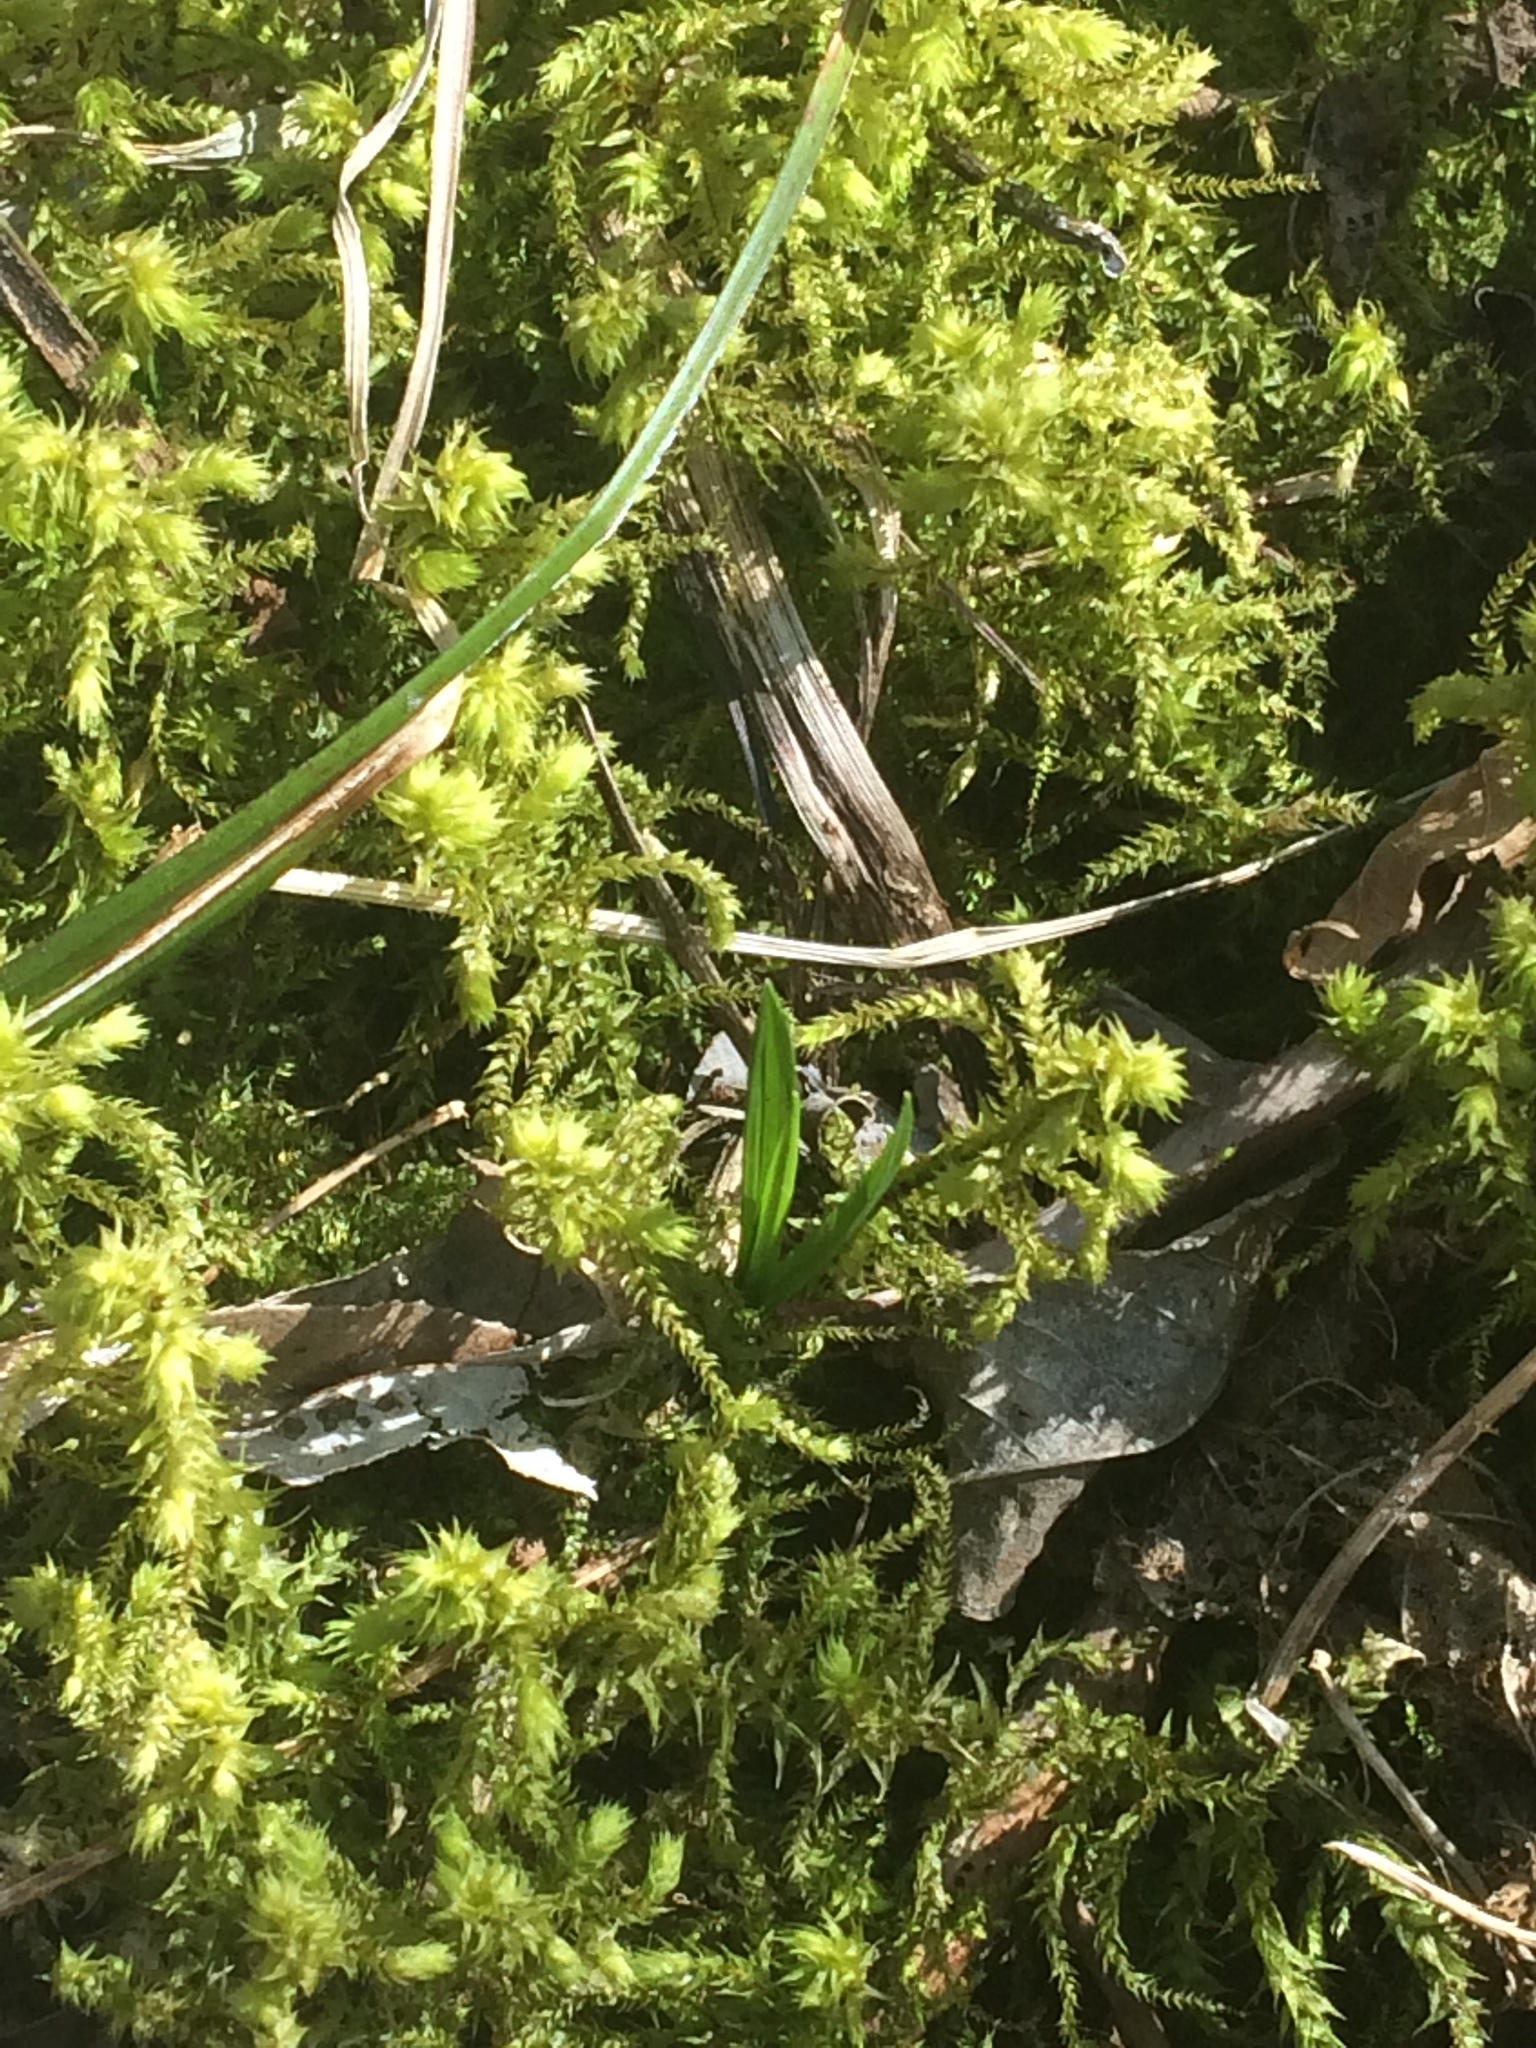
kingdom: Plantae
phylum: Bryophyta
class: Bryopsida
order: Hypnales
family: Hylocomiaceae
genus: Hylocomiadelphus
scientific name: Hylocomiadelphus triquetrus
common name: Rough goose neck moss
